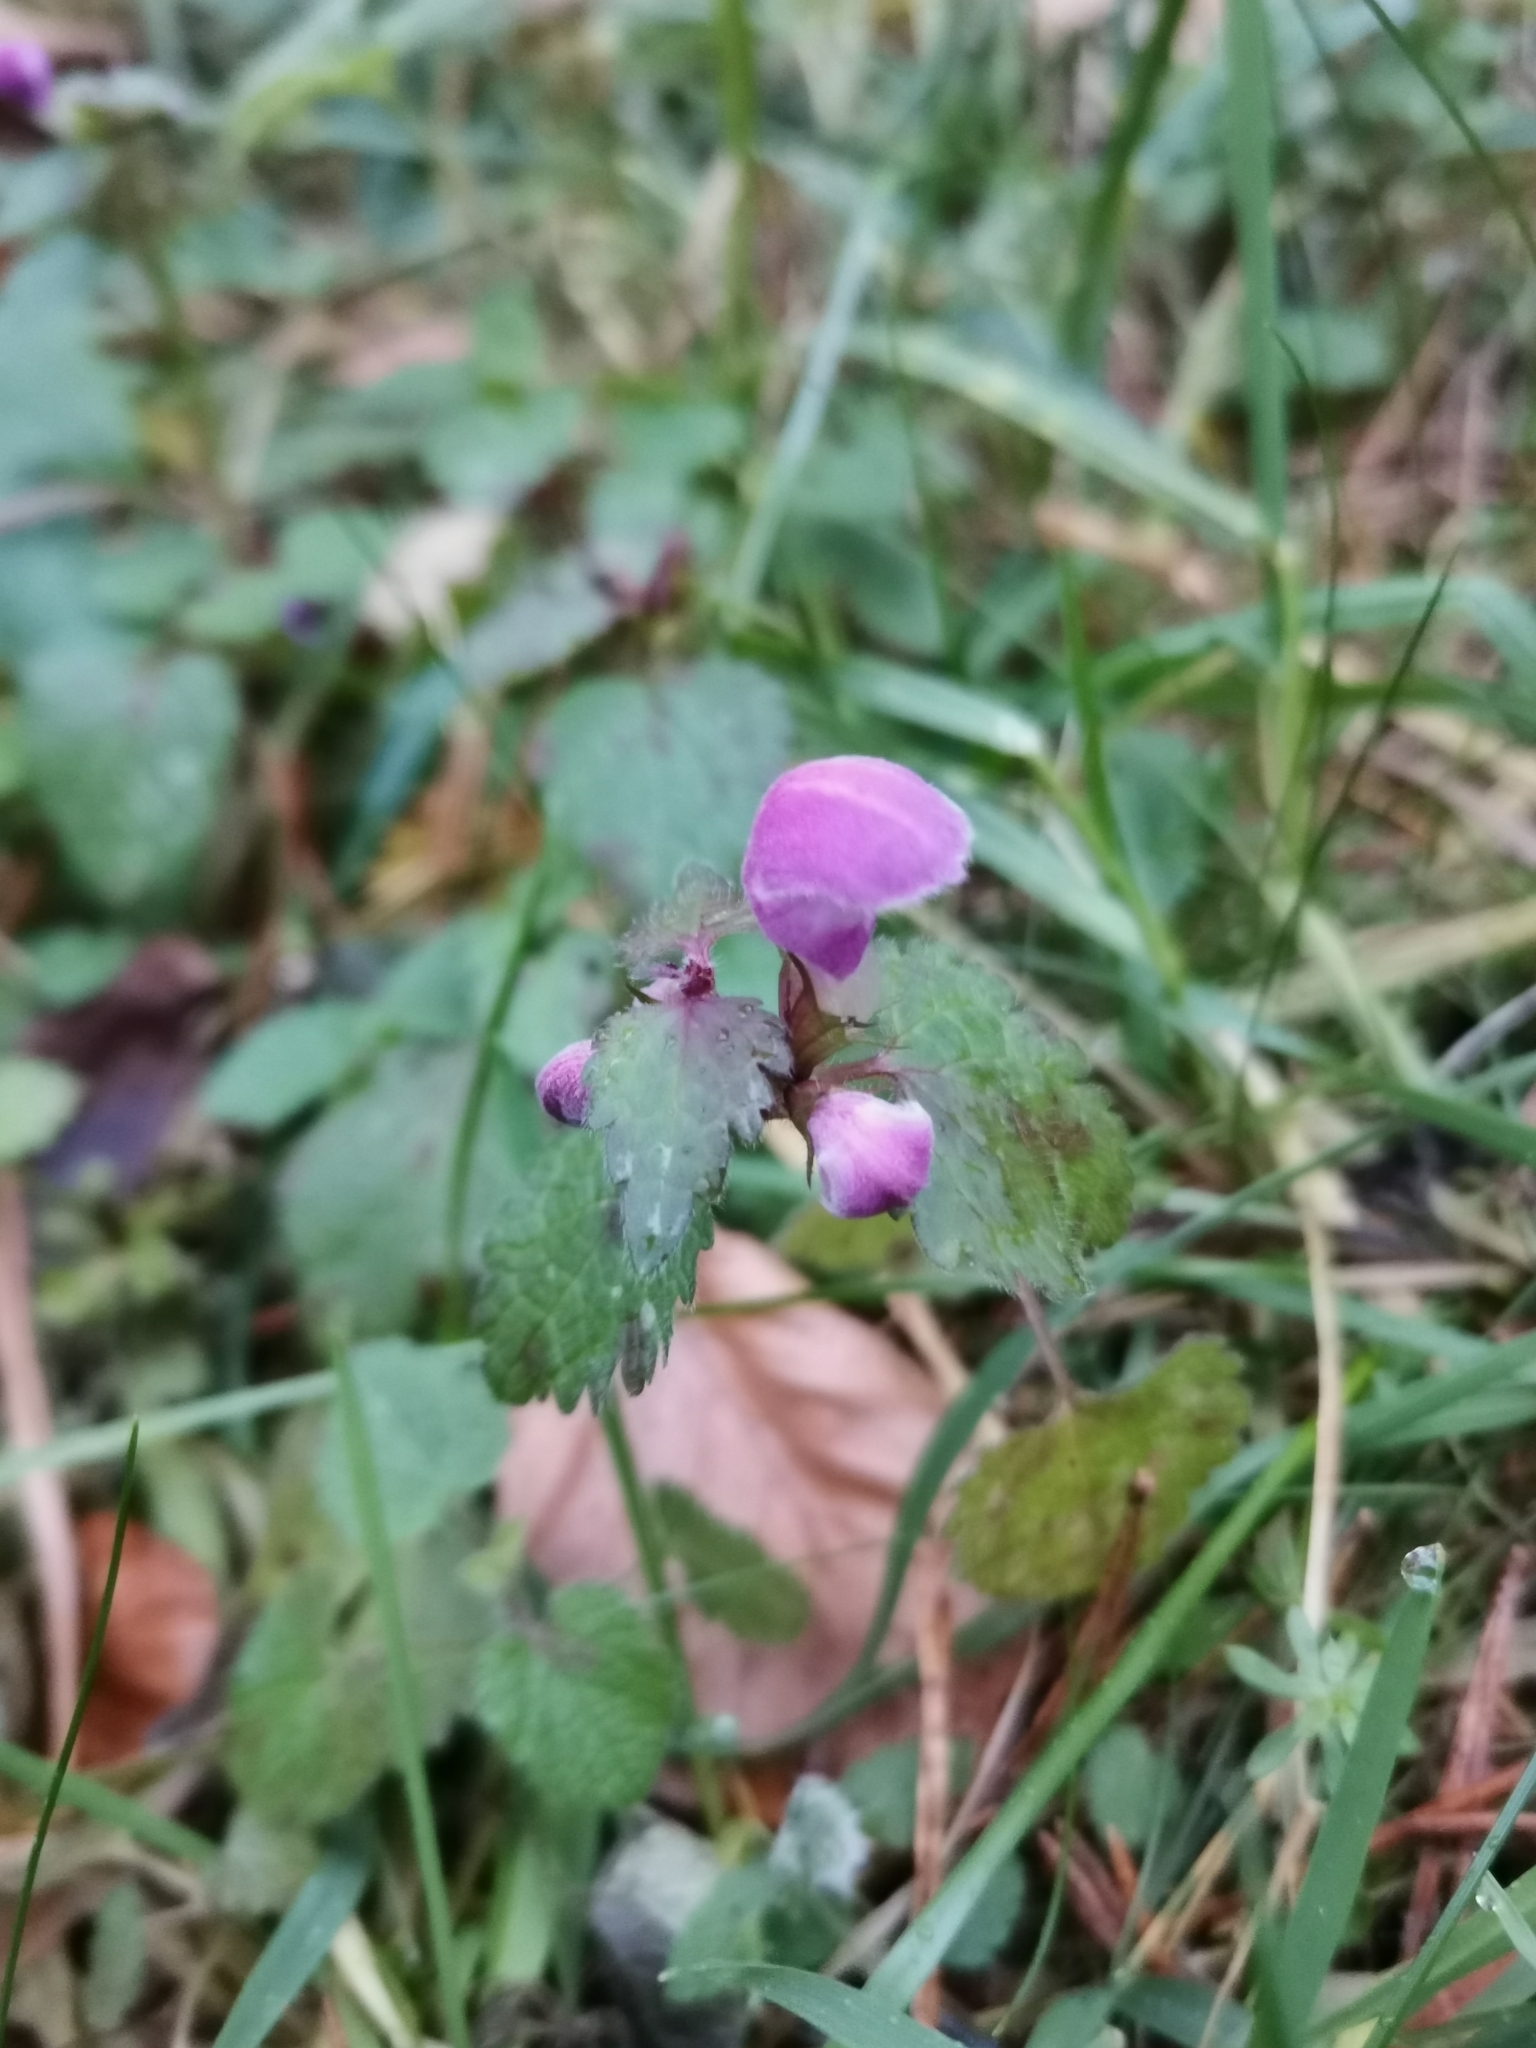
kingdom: Plantae
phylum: Tracheophyta
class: Magnoliopsida
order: Lamiales
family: Lamiaceae
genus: Lamium
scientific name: Lamium maculatum
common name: Spotted dead-nettle
